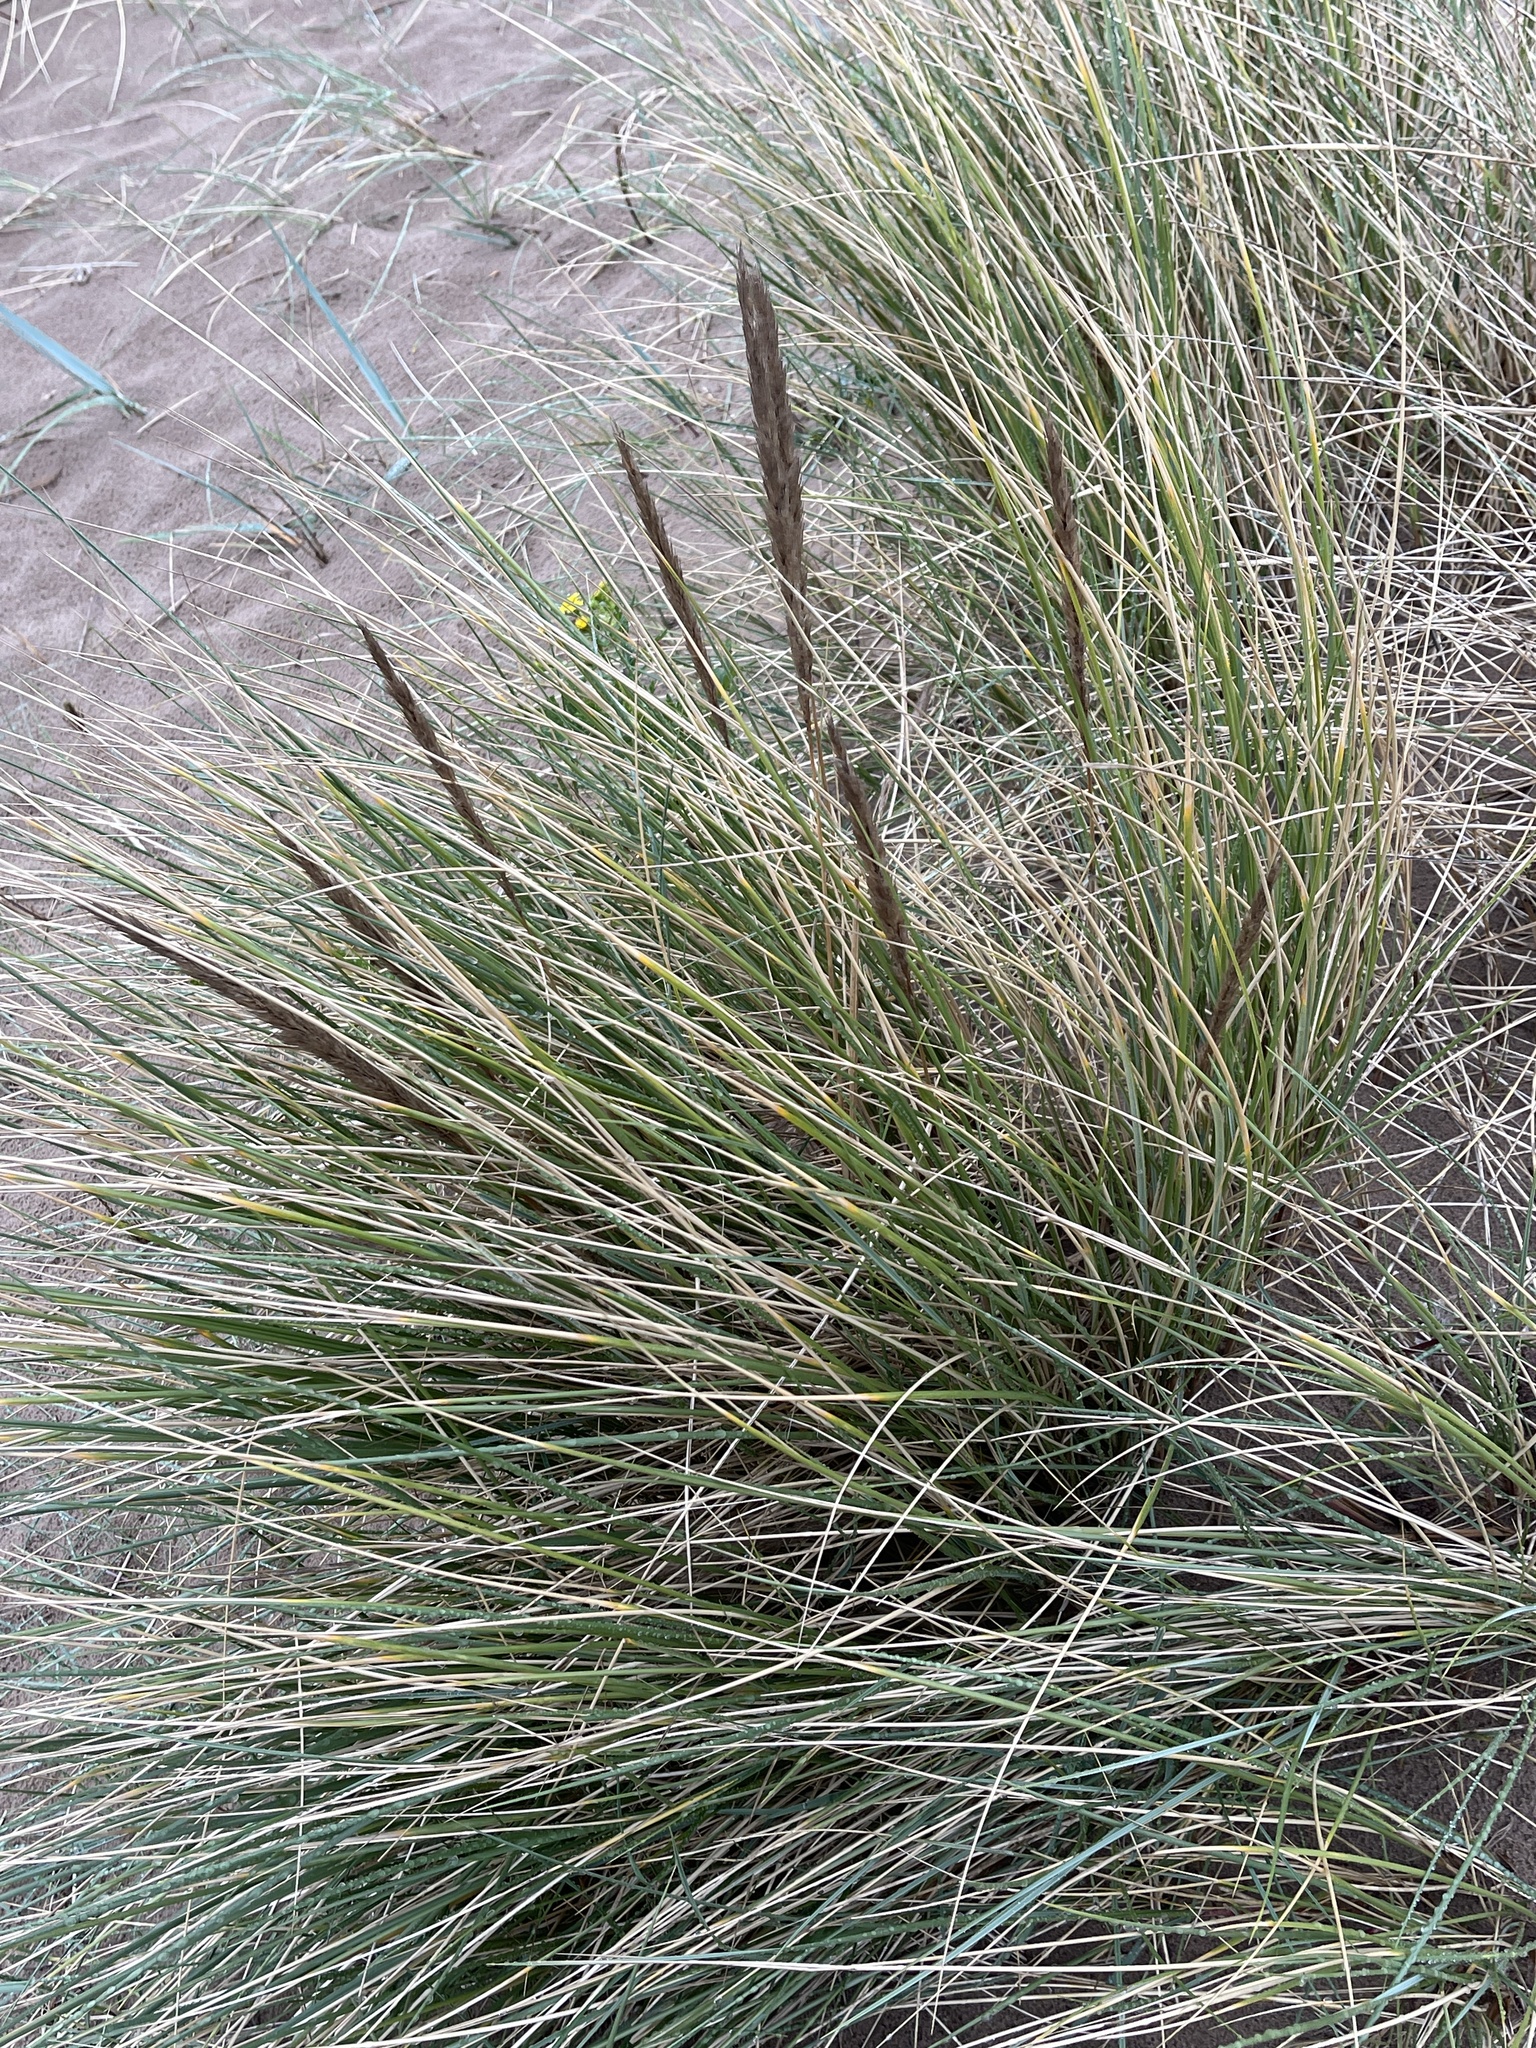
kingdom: Plantae
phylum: Tracheophyta
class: Liliopsida
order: Poales
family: Poaceae
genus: Calamagrostis
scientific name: Calamagrostis arenaria
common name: European beachgrass
